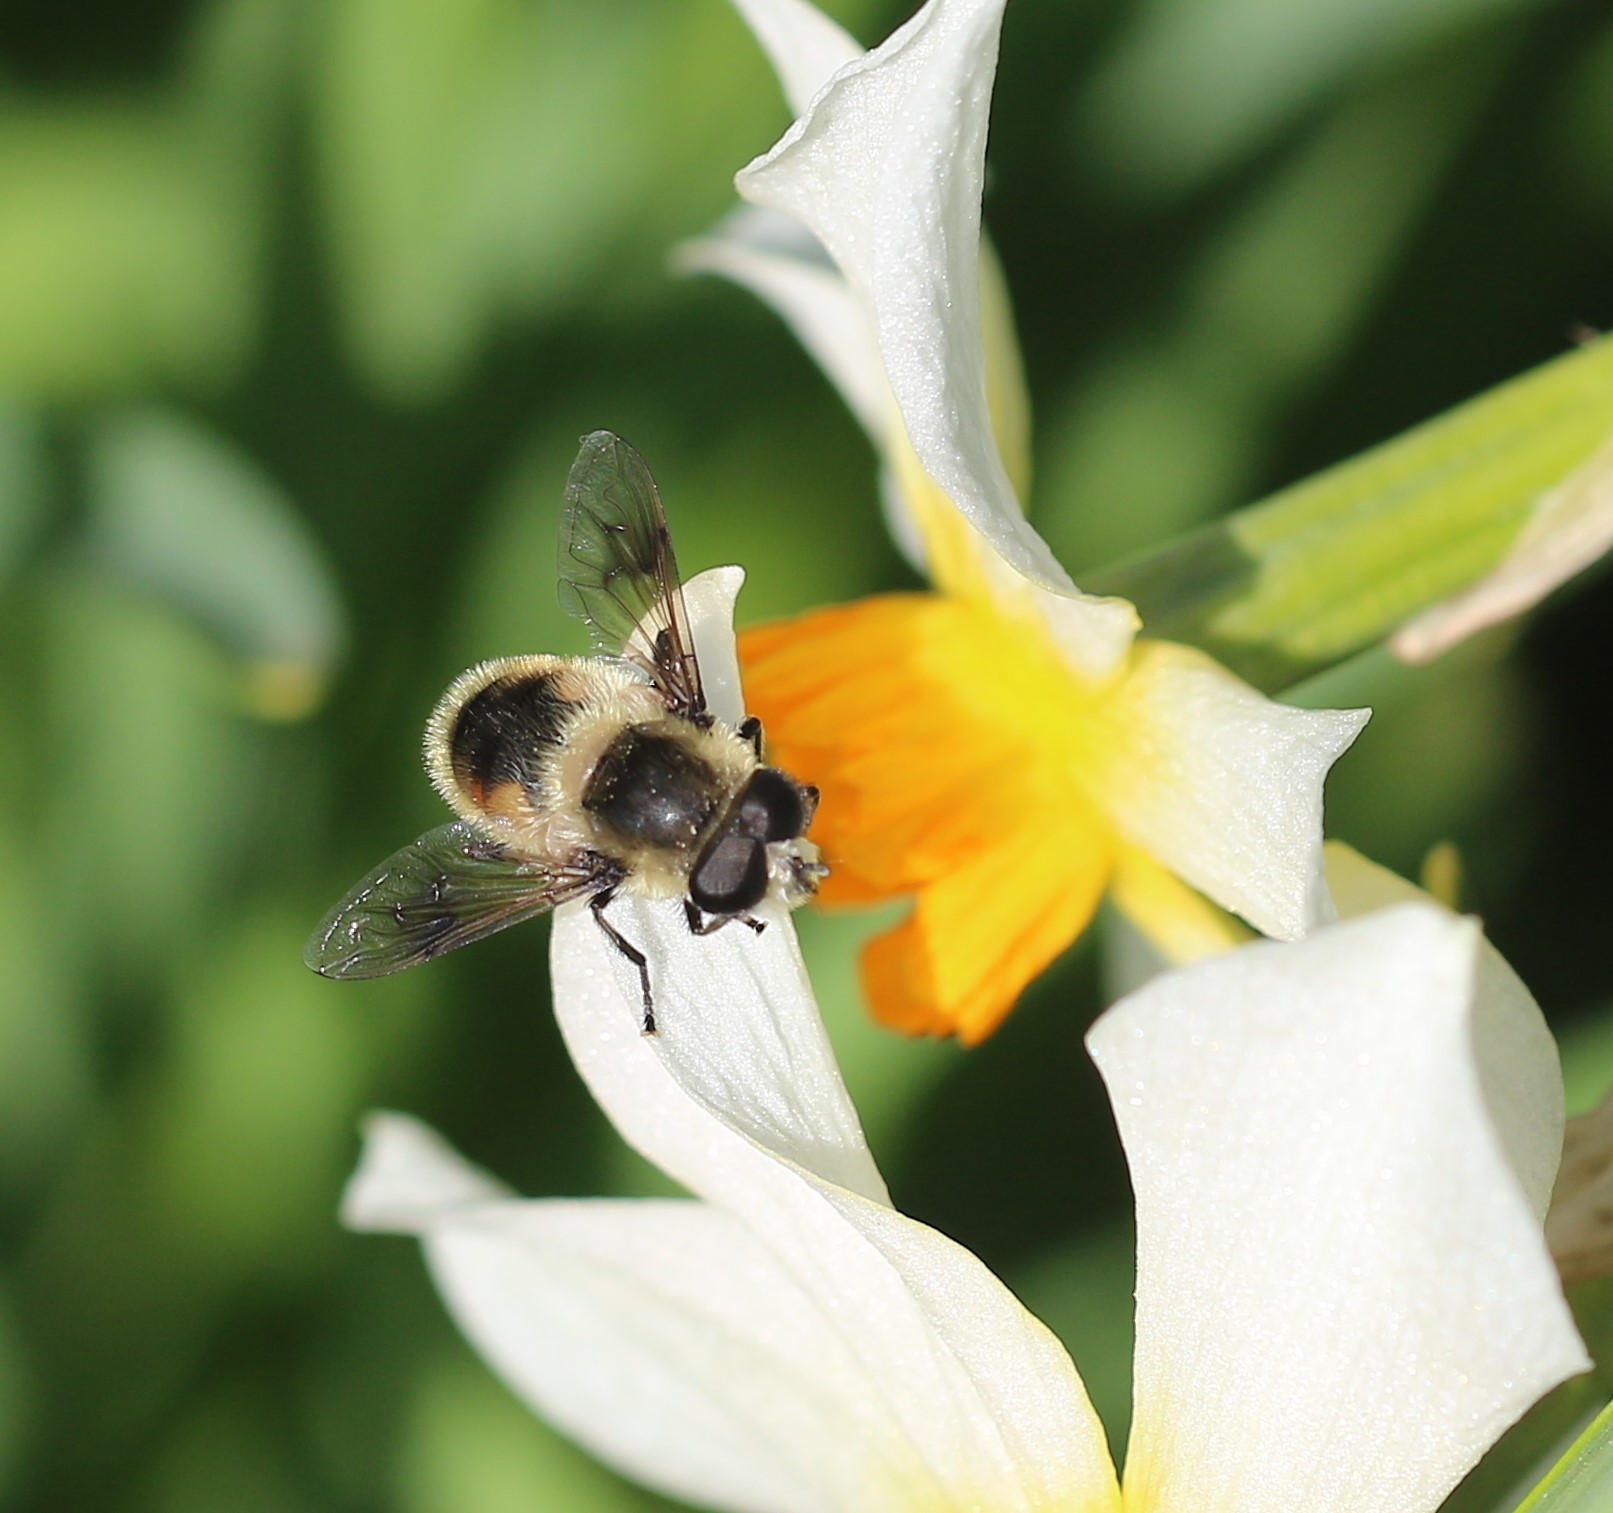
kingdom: Animalia
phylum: Arthropoda
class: Insecta
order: Diptera
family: Syrphidae
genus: Eristalis
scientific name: Eristalis anthophorina
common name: Orange-spotted drone fly
